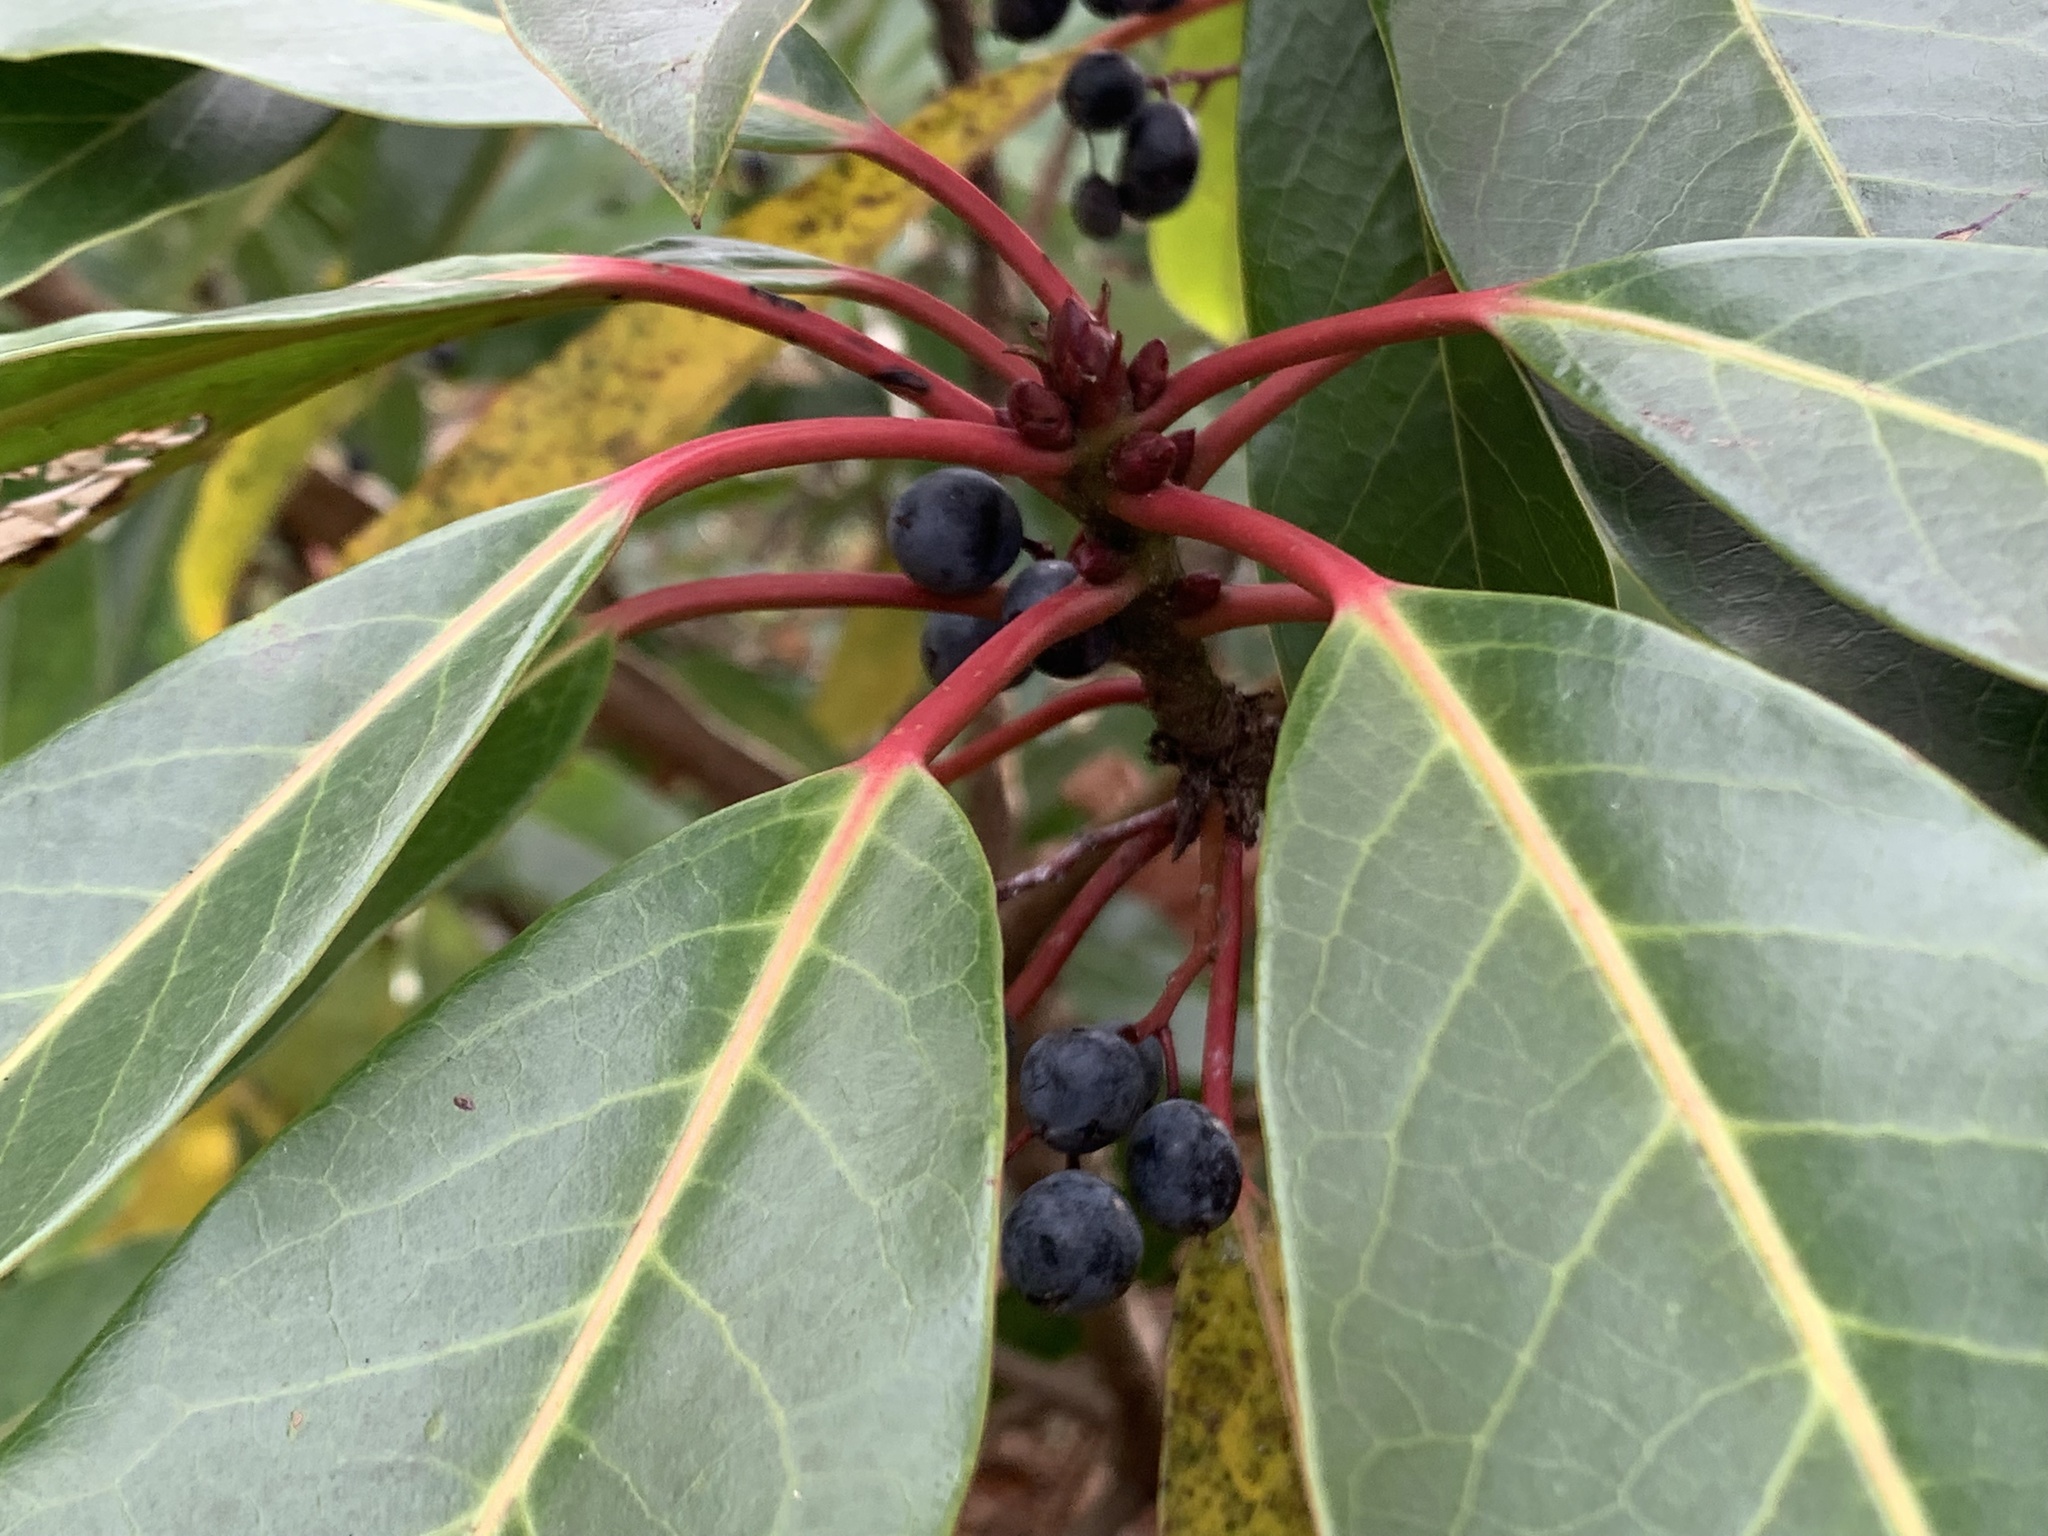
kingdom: Plantae
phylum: Tracheophyta
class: Magnoliopsida
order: Saxifragales
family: Daphniphyllaceae
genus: Daphniphyllum
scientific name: Daphniphyllum macropodum
